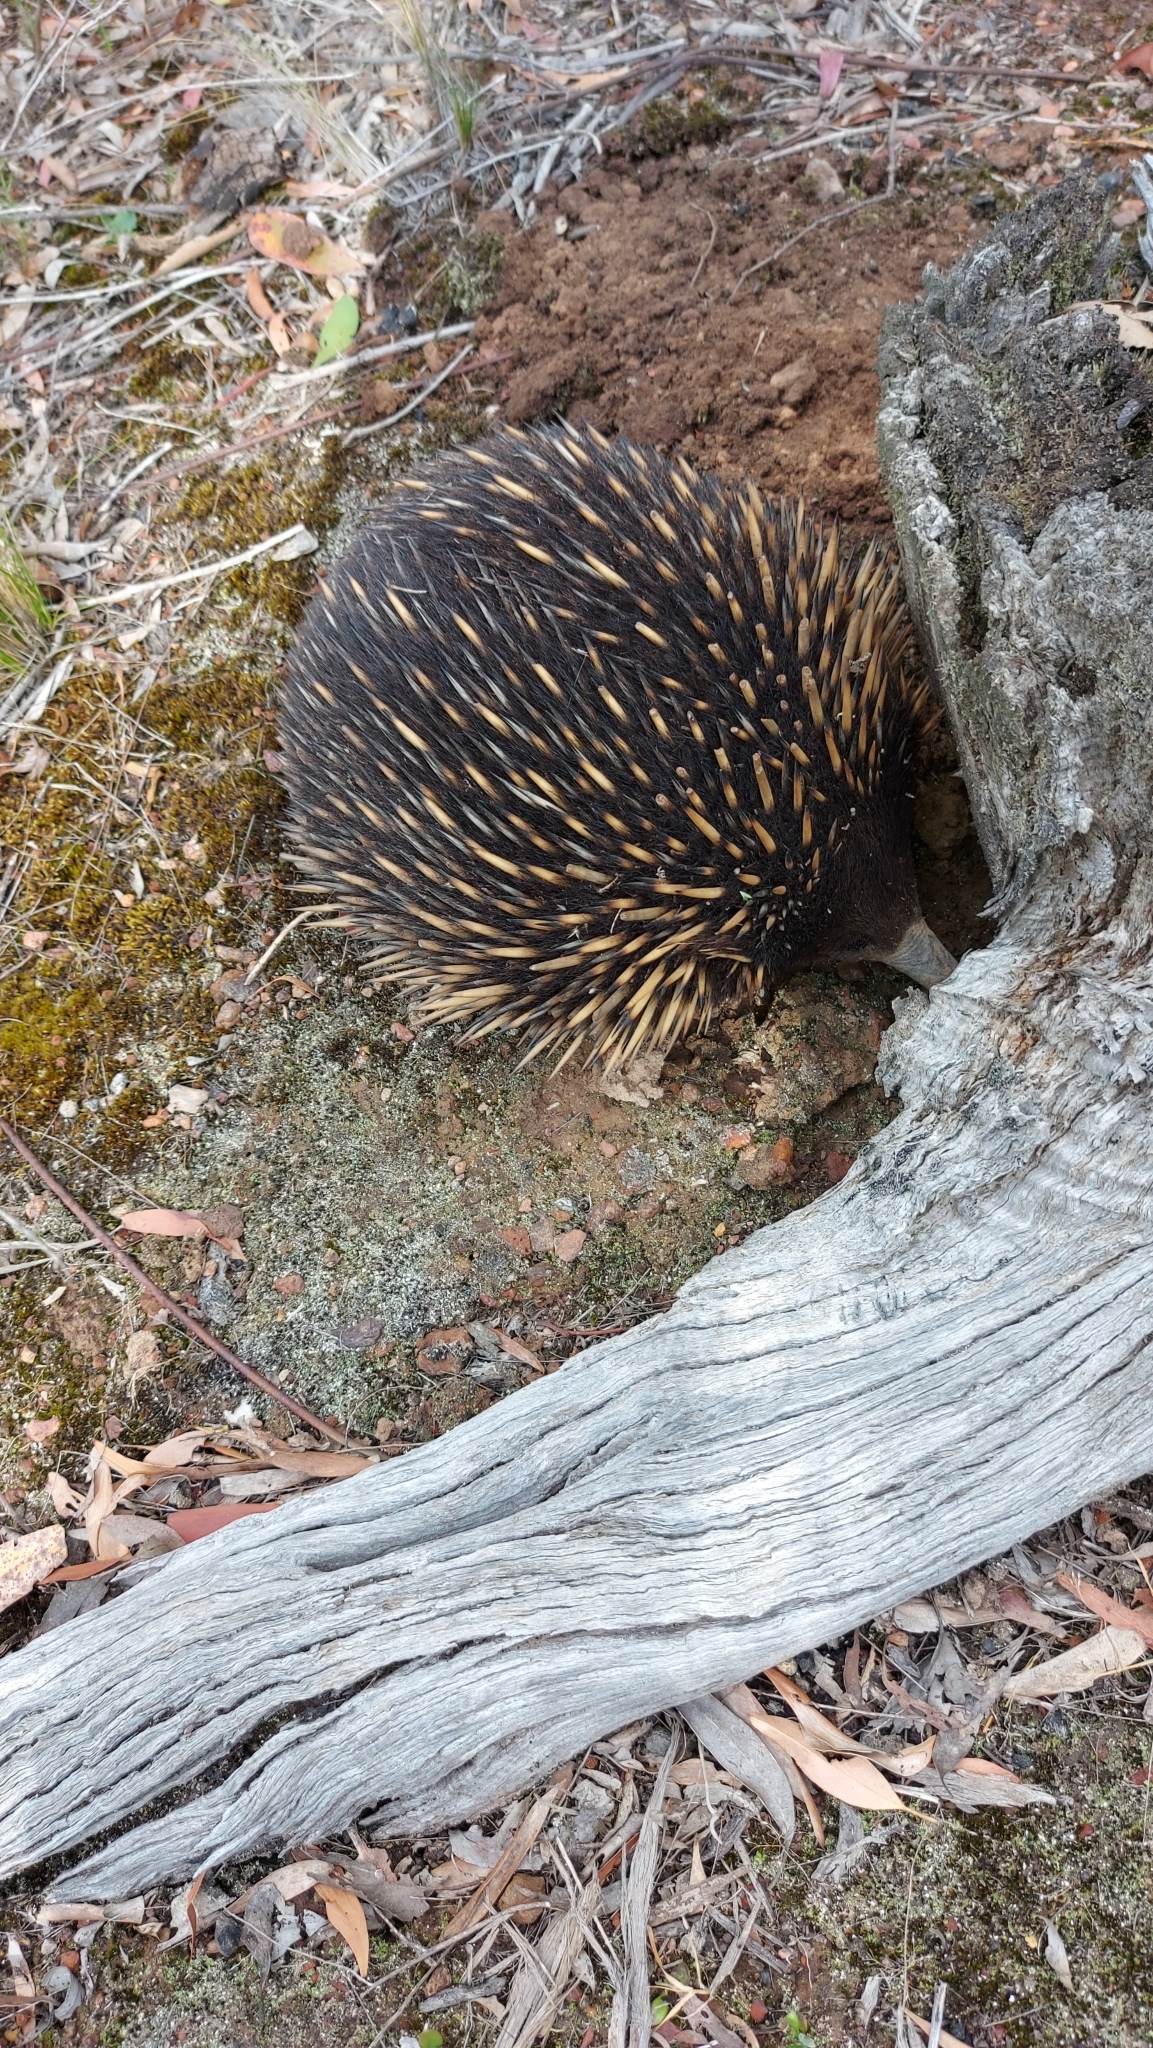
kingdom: Animalia
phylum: Chordata
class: Mammalia
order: Monotremata
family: Tachyglossidae
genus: Tachyglossus
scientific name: Tachyglossus aculeatus
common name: Short-beaked echidna
